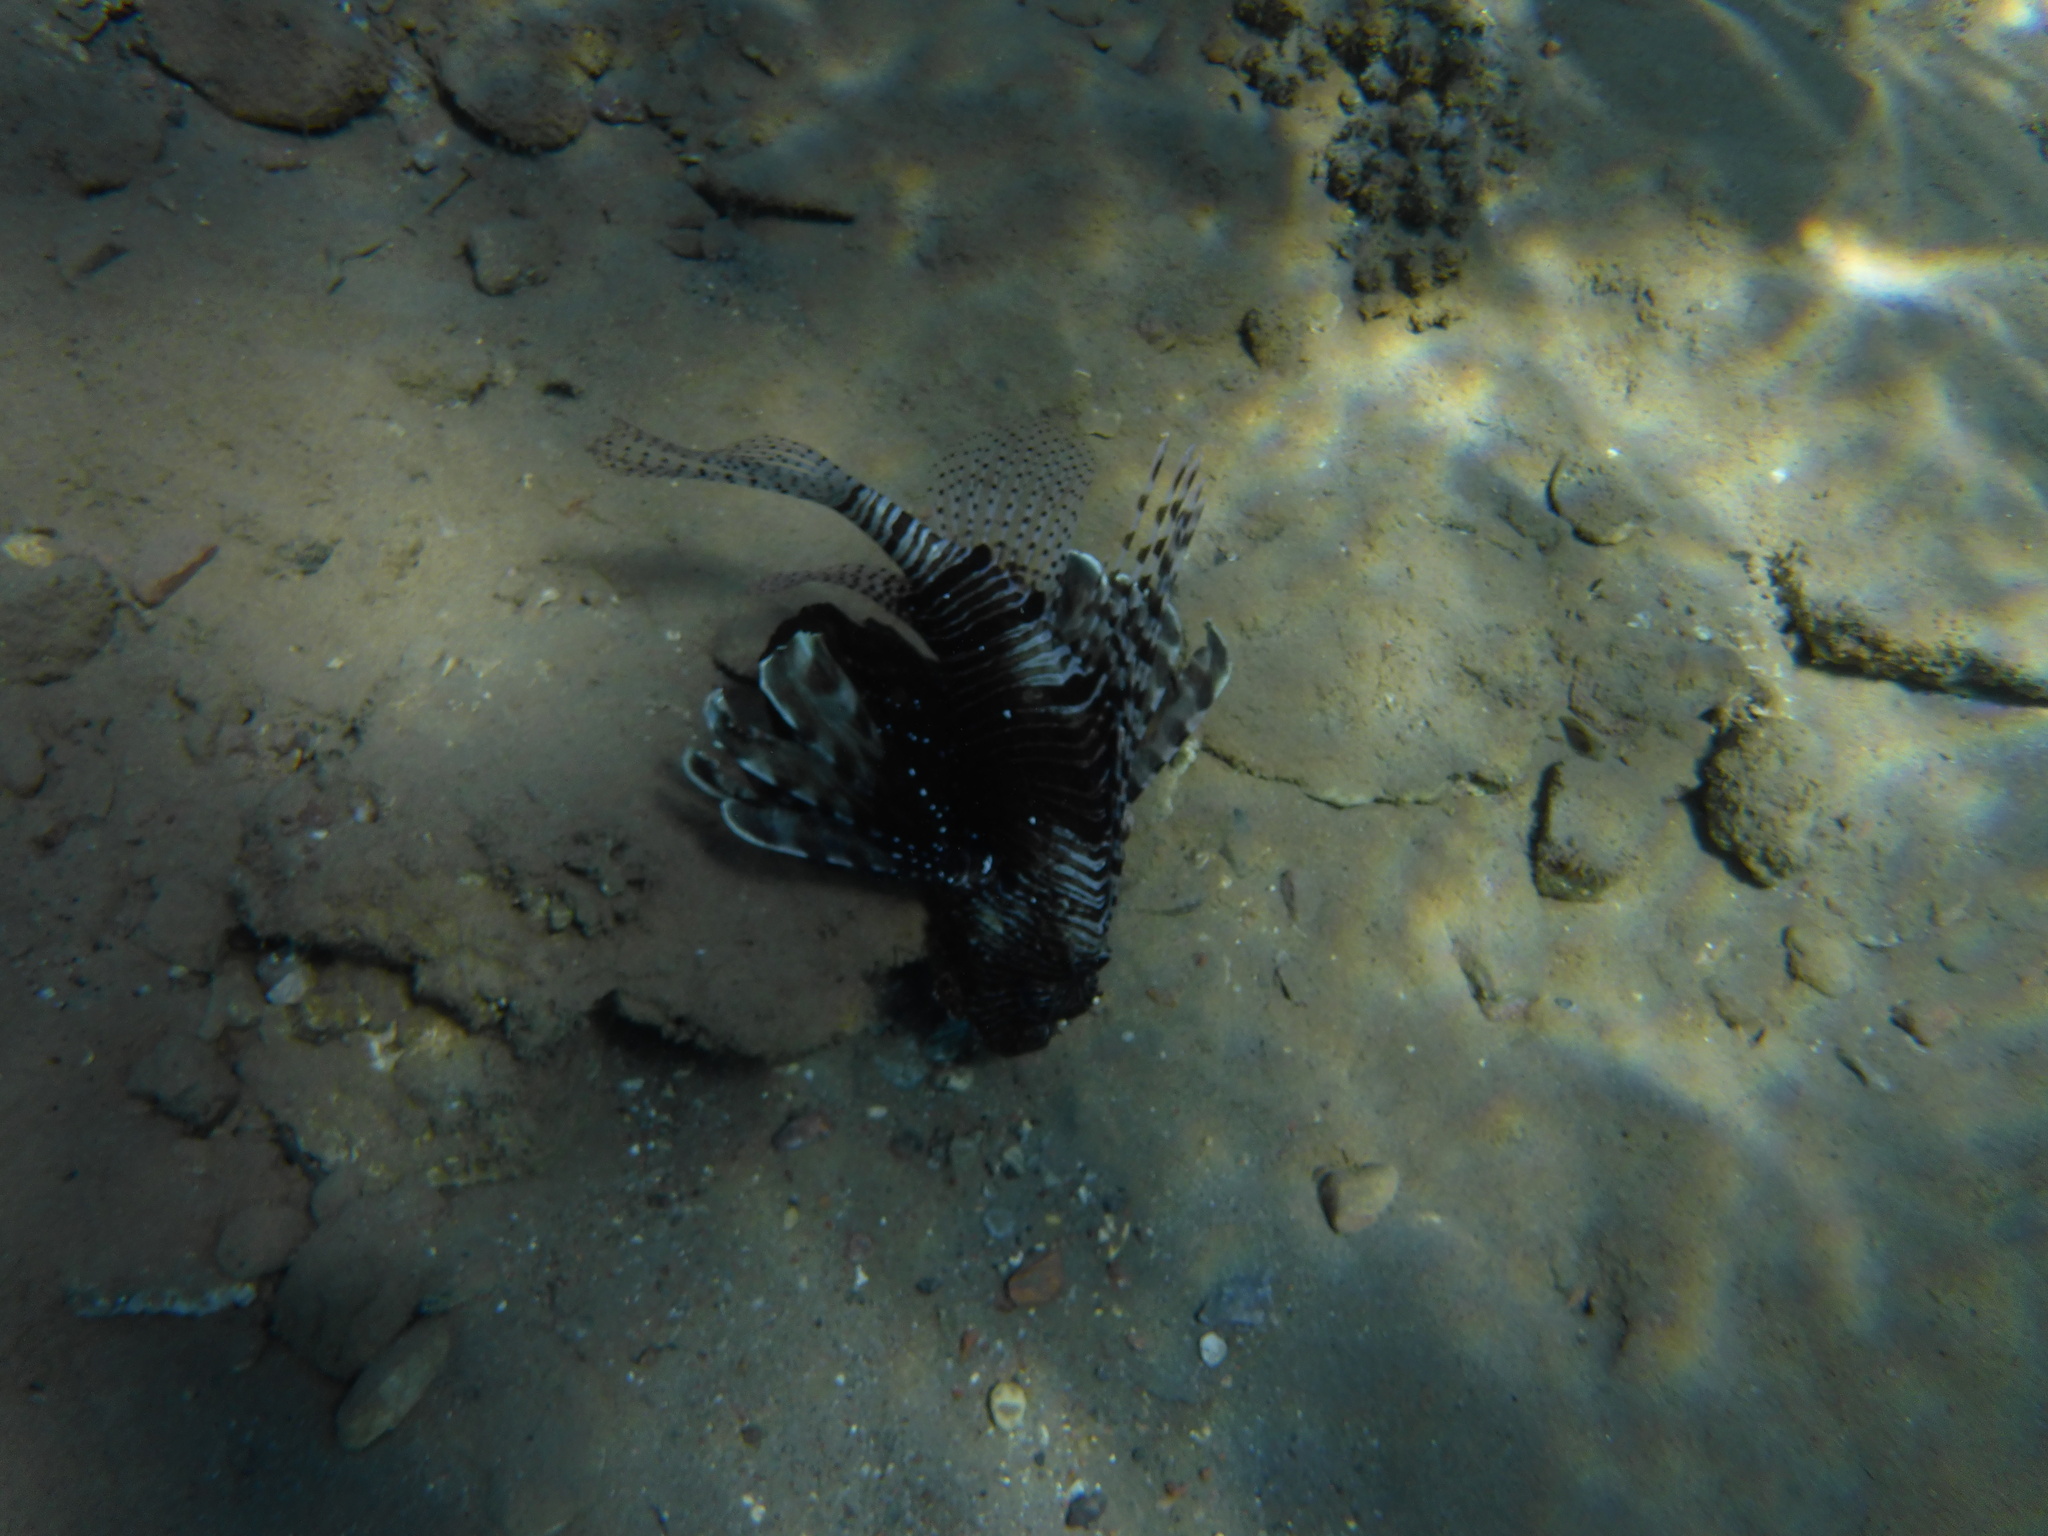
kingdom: Animalia
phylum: Chordata
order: Scorpaeniformes
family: Scorpaenidae
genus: Pterois
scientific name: Pterois miles
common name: Devil firefish
